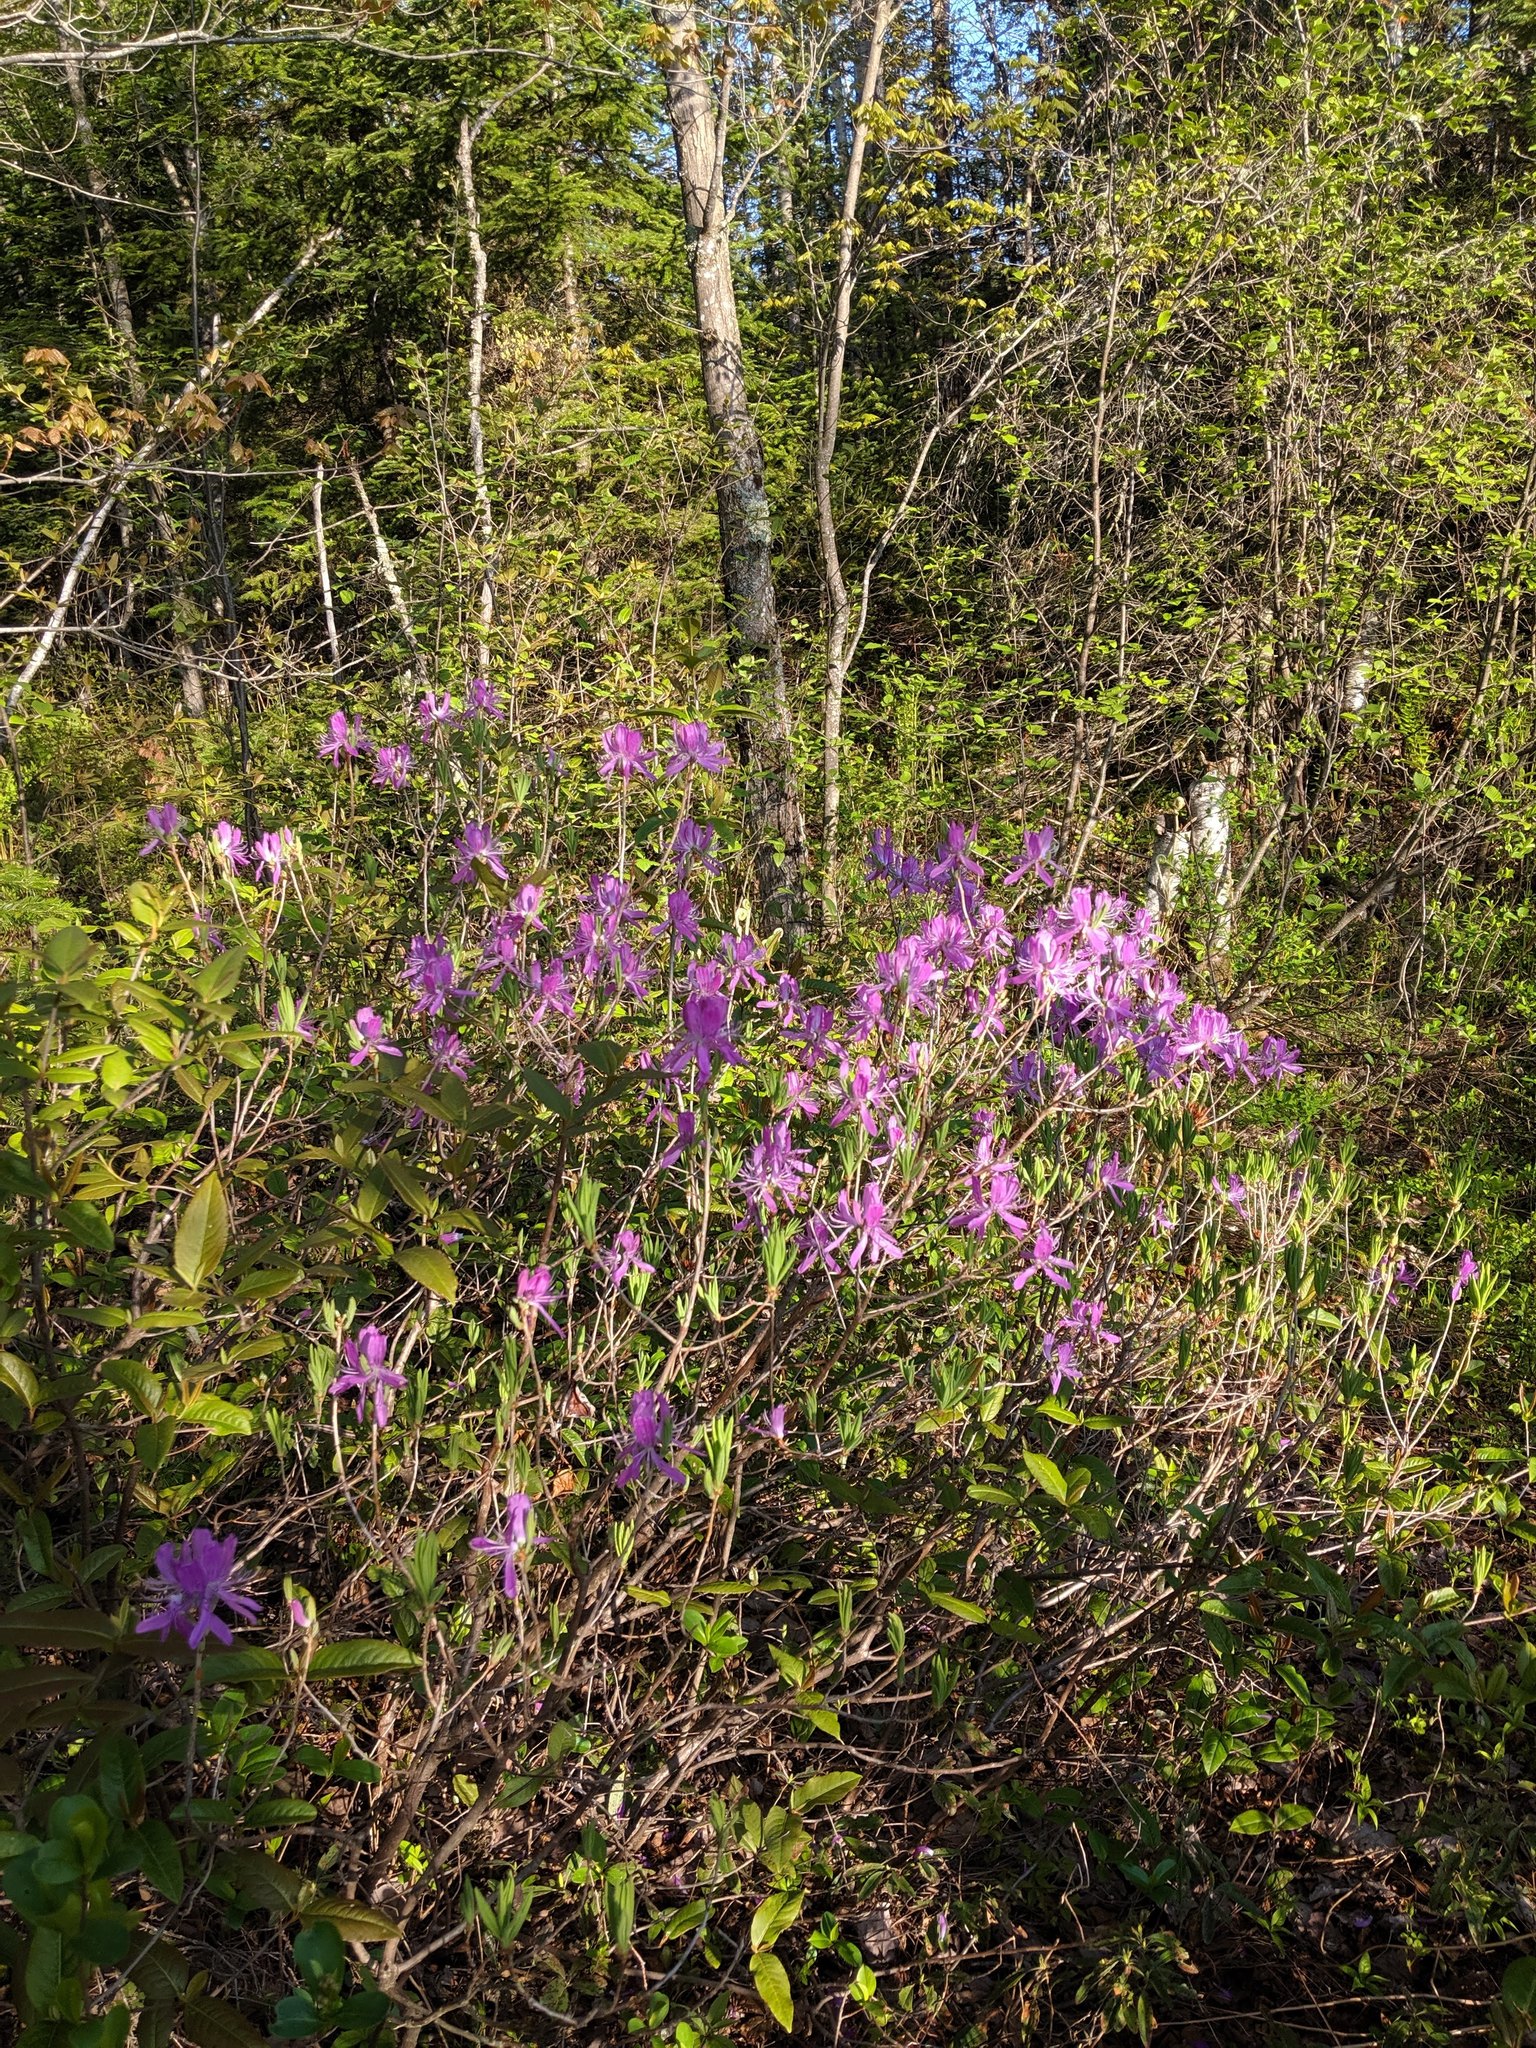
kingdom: Plantae
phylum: Tracheophyta
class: Magnoliopsida
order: Ericales
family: Ericaceae
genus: Rhododendron
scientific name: Rhododendron canadense
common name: Rhodora
